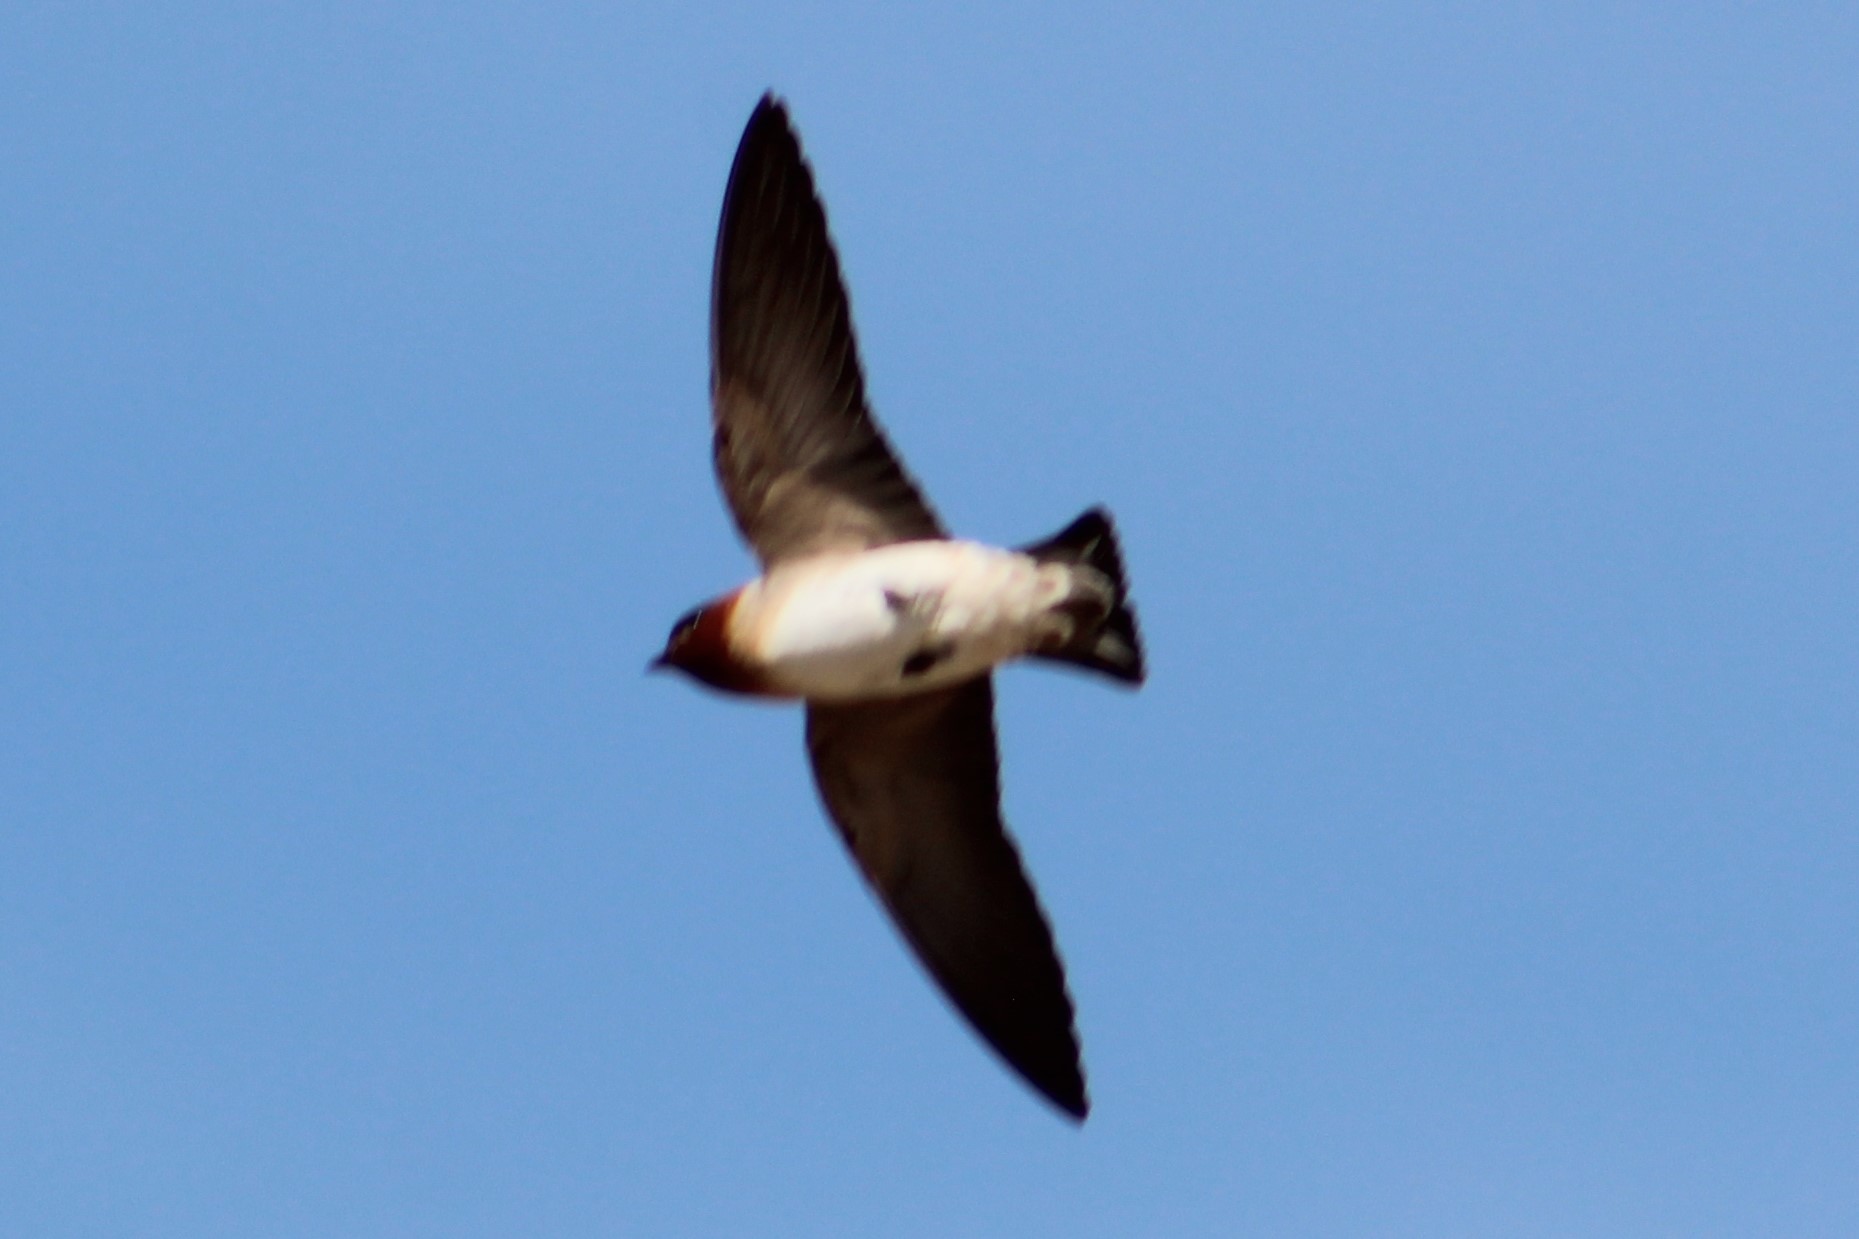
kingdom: Animalia
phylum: Chordata
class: Aves
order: Passeriformes
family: Hirundinidae
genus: Petrochelidon
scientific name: Petrochelidon pyrrhonota
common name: American cliff swallow
